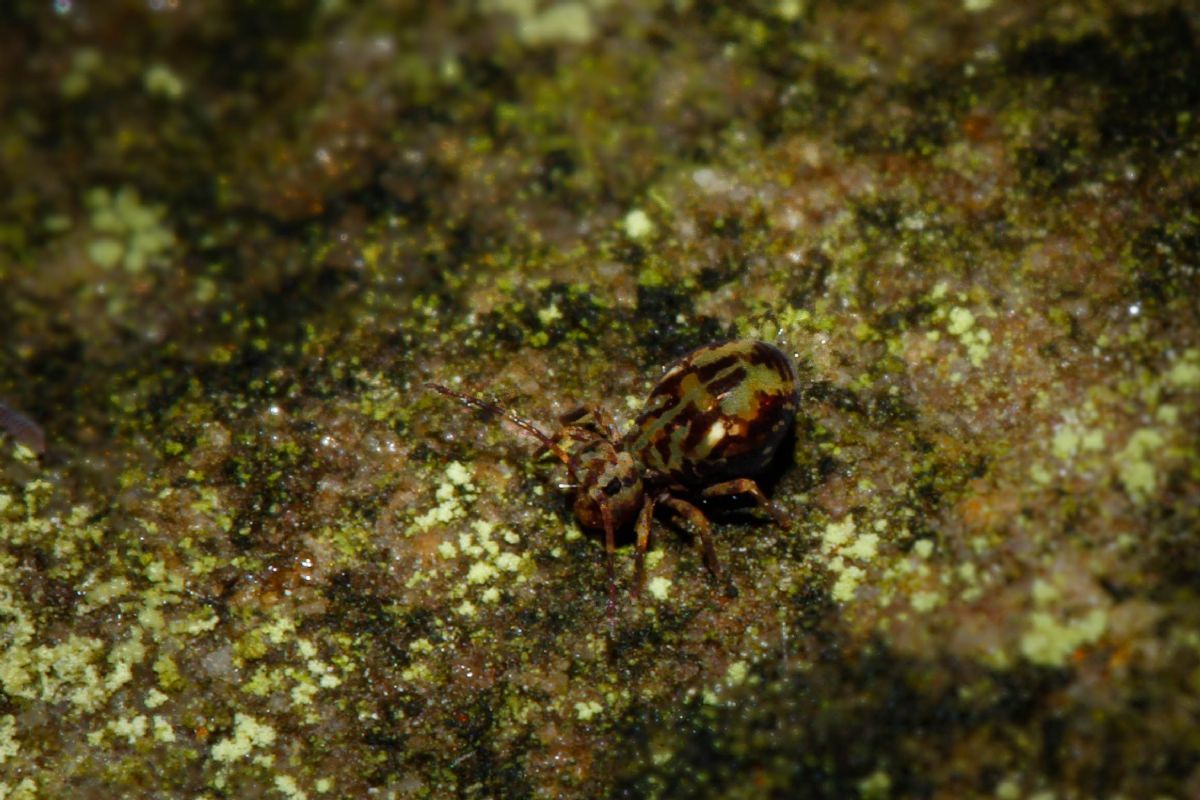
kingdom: Animalia
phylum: Arthropoda
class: Collembola
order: Symphypleona
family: Dicyrtomidae
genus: Dicyrtomina
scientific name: Dicyrtomina saundersi
